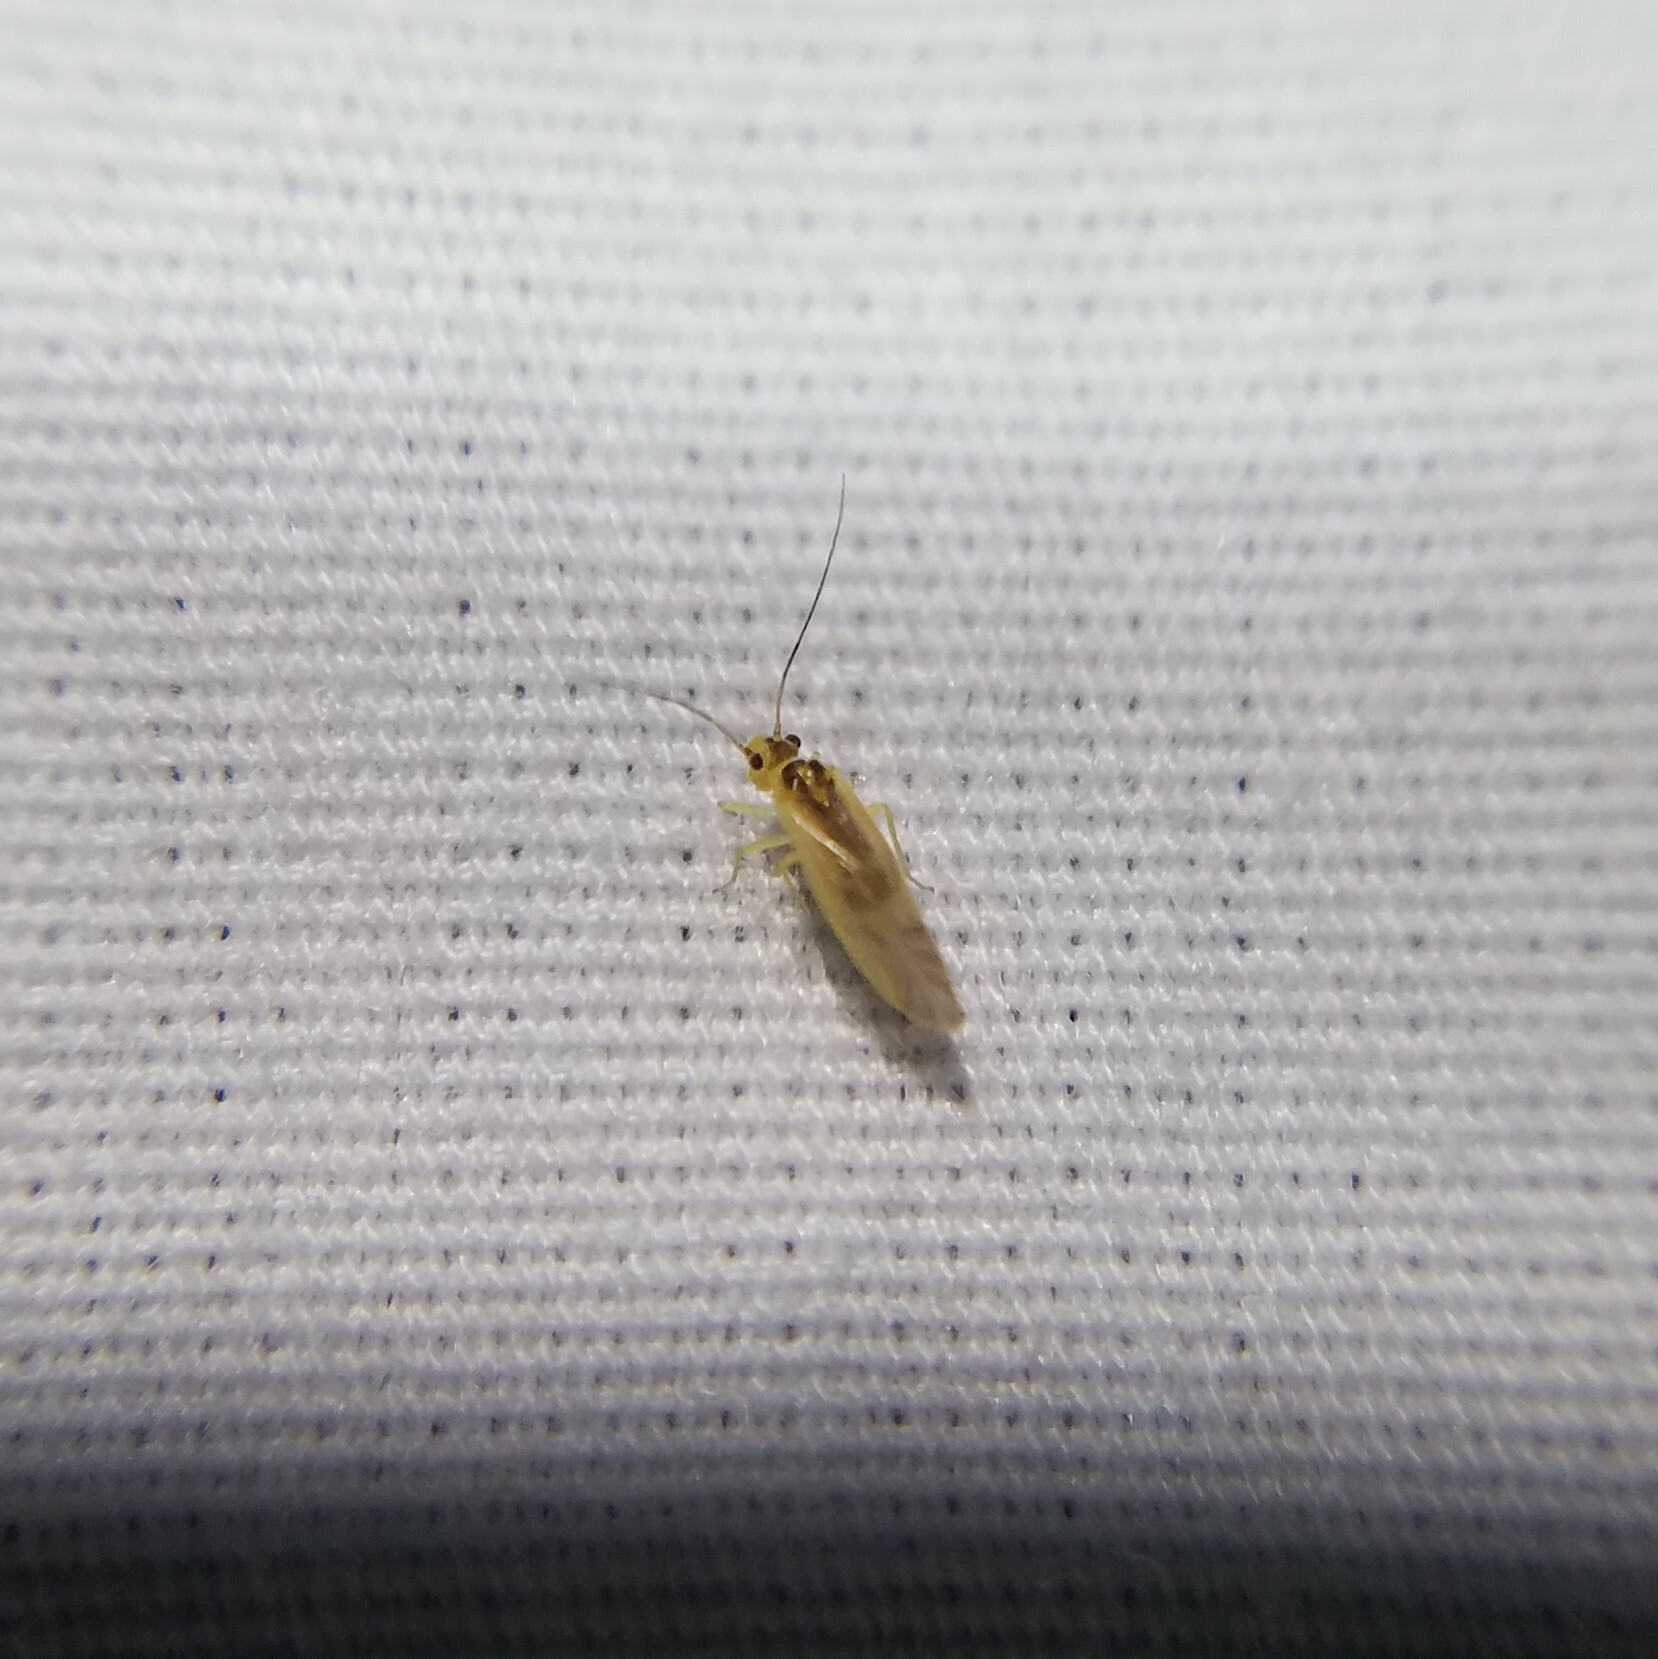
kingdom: Animalia
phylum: Arthropoda
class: Insecta
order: Psocodea
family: Caeciliusidae
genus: Valenzuela
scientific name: Valenzuela flavidus
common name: Yellow barklouse
